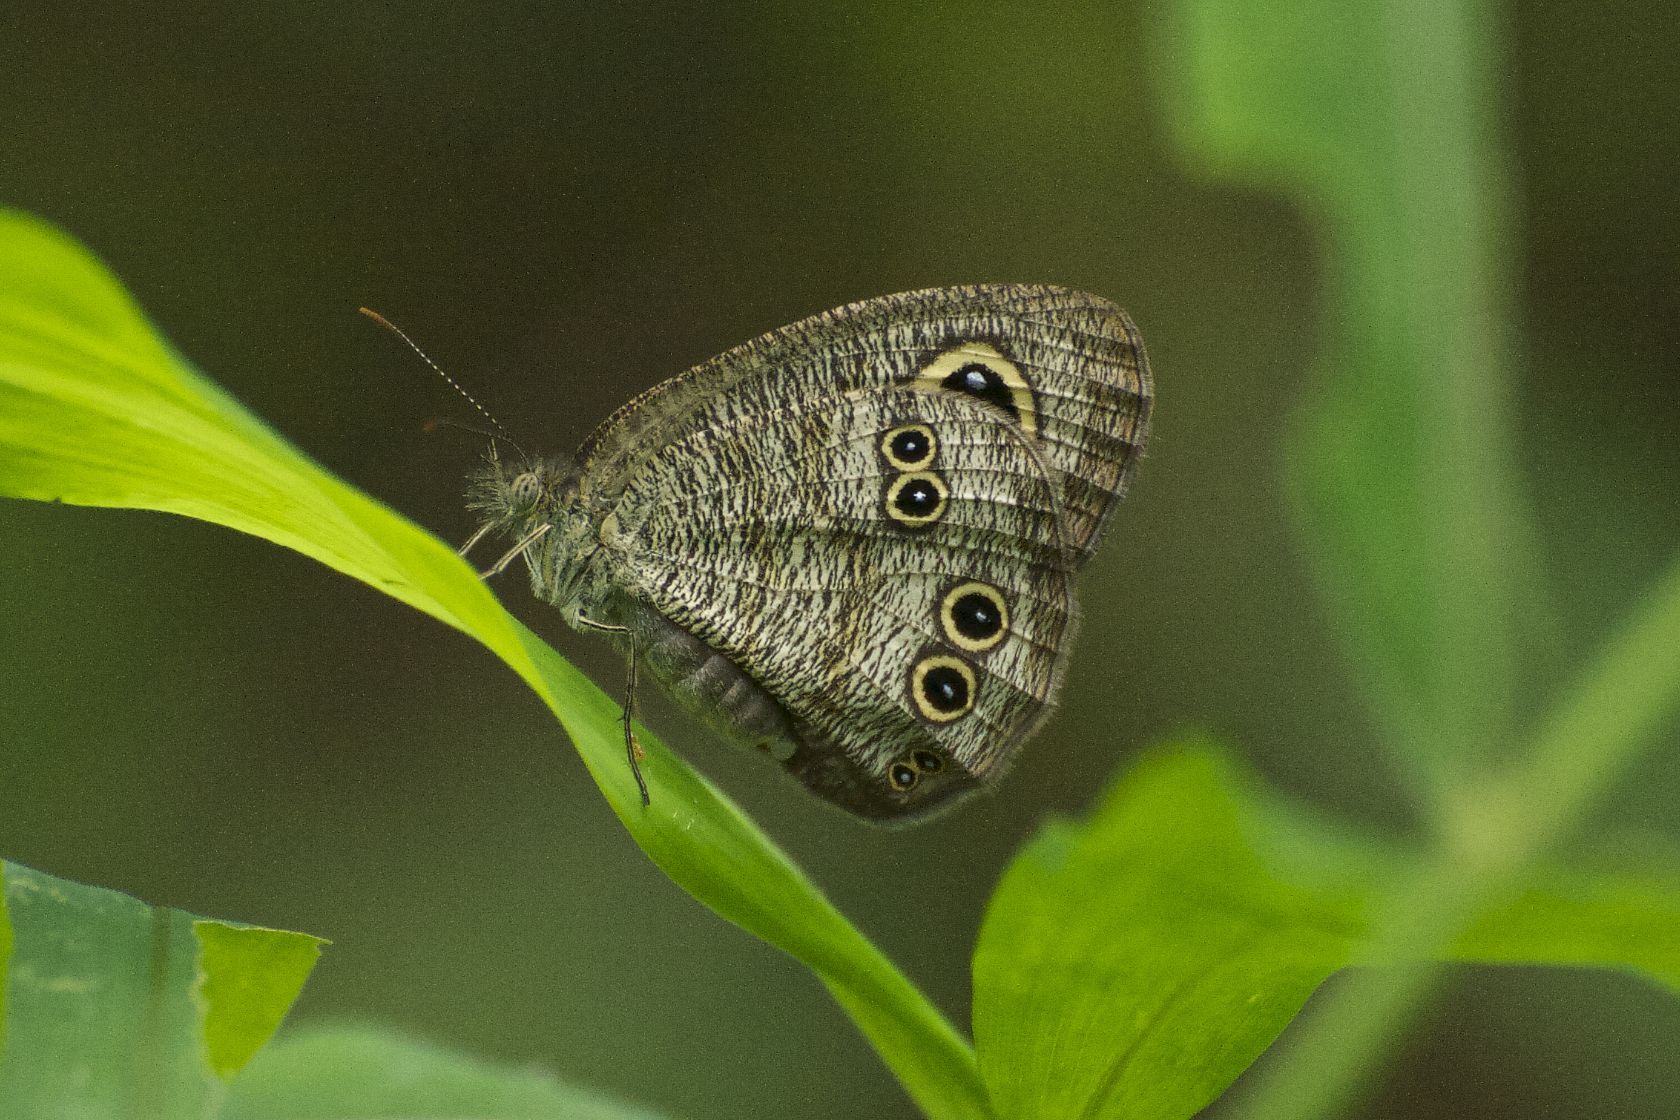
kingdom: Animalia
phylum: Arthropoda
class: Insecta
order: Lepidoptera
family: Nymphalidae
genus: Ypthima
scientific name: Ypthima baldus
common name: Common five-ring
